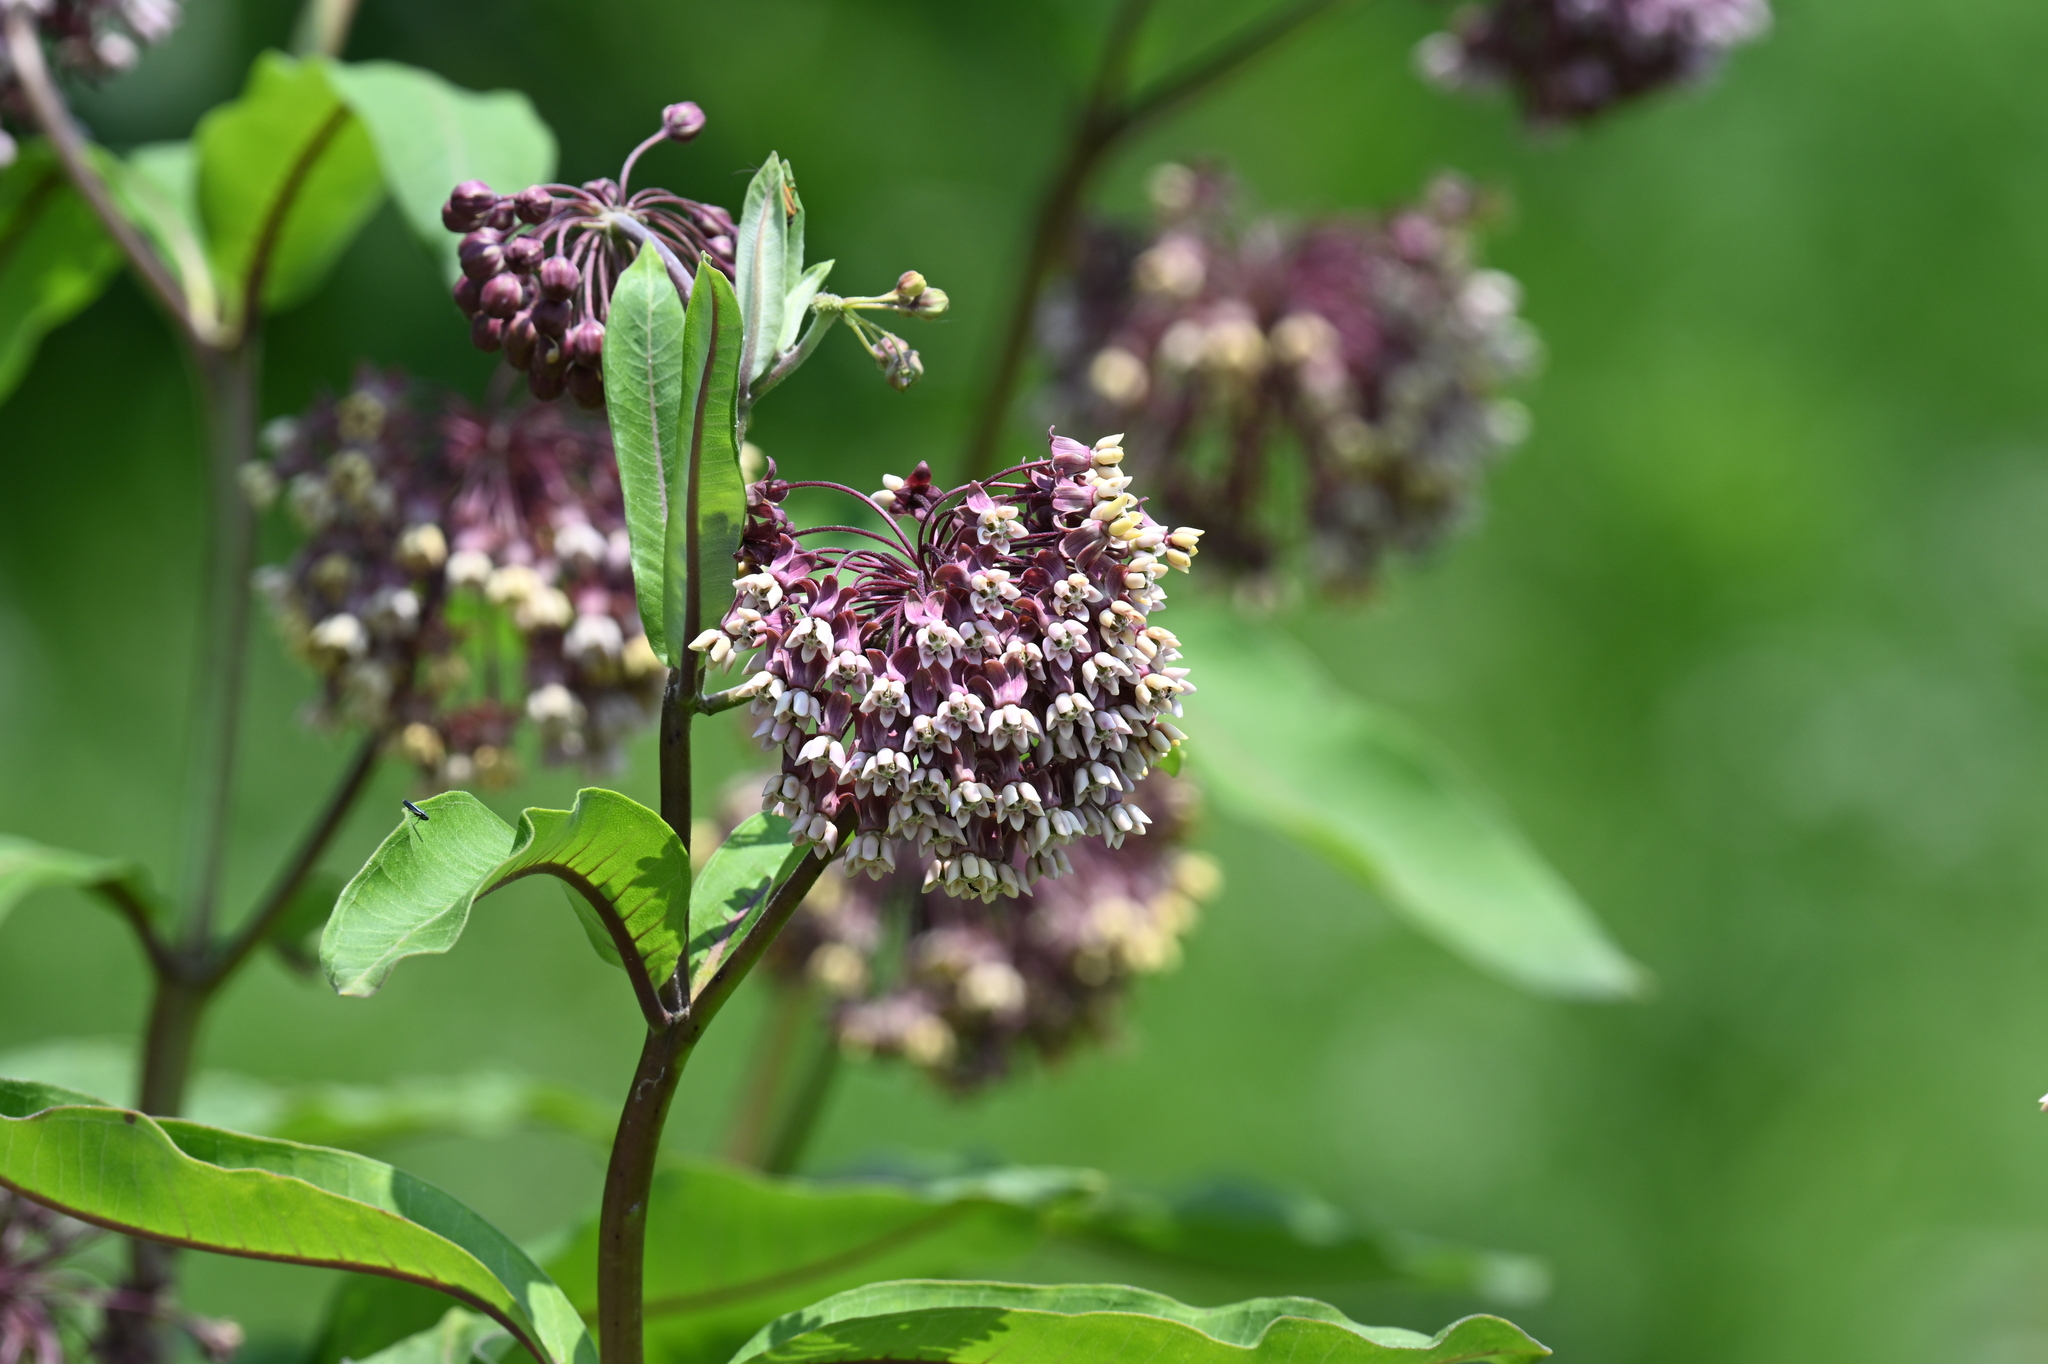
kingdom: Plantae
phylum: Tracheophyta
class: Magnoliopsida
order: Gentianales
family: Apocynaceae
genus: Asclepias
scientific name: Asclepias syriaca
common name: Common milkweed
